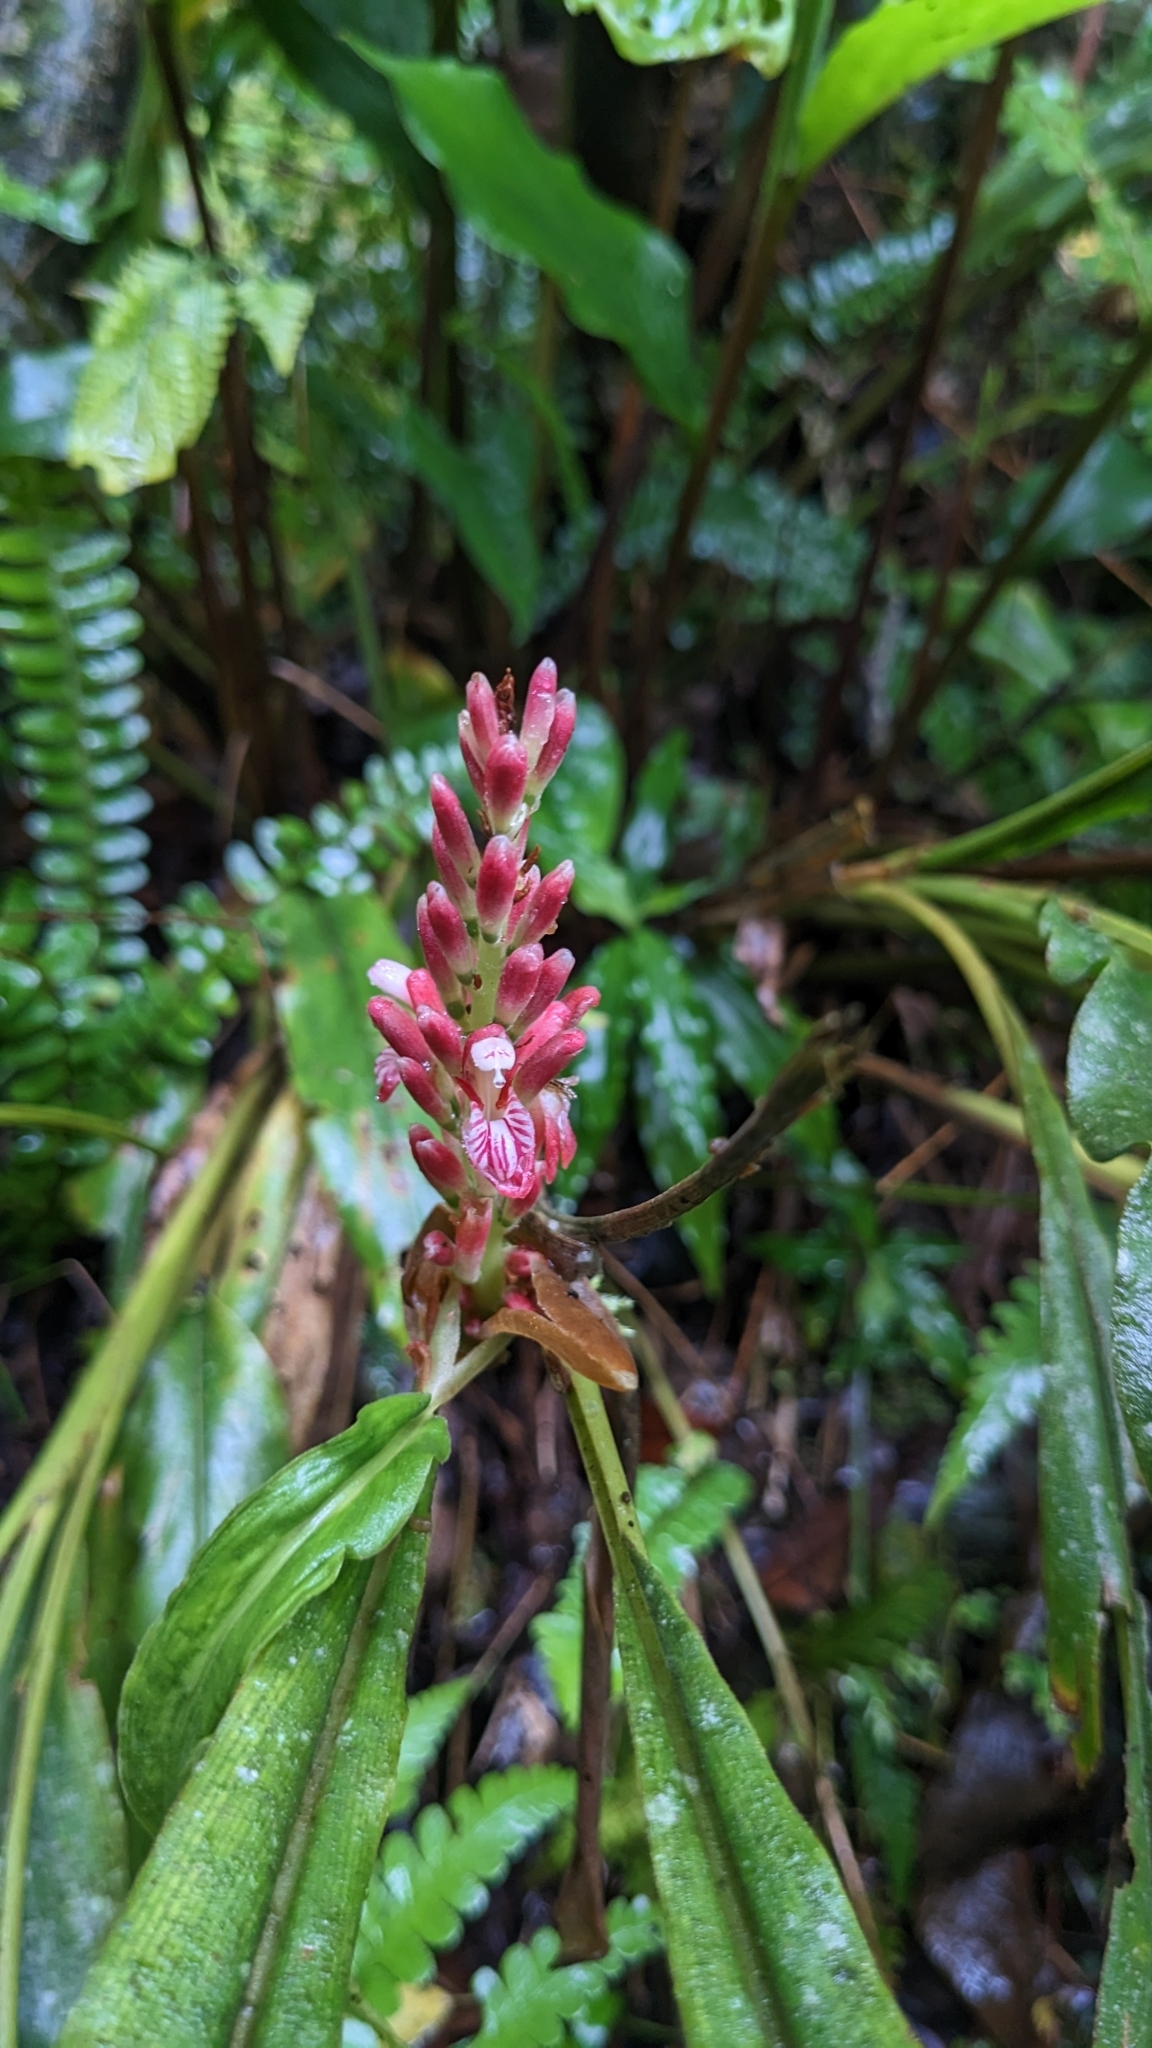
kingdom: Plantae
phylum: Tracheophyta
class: Liliopsida
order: Zingiberales
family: Zingiberaceae
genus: Alpinia
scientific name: Alpinia japonica
